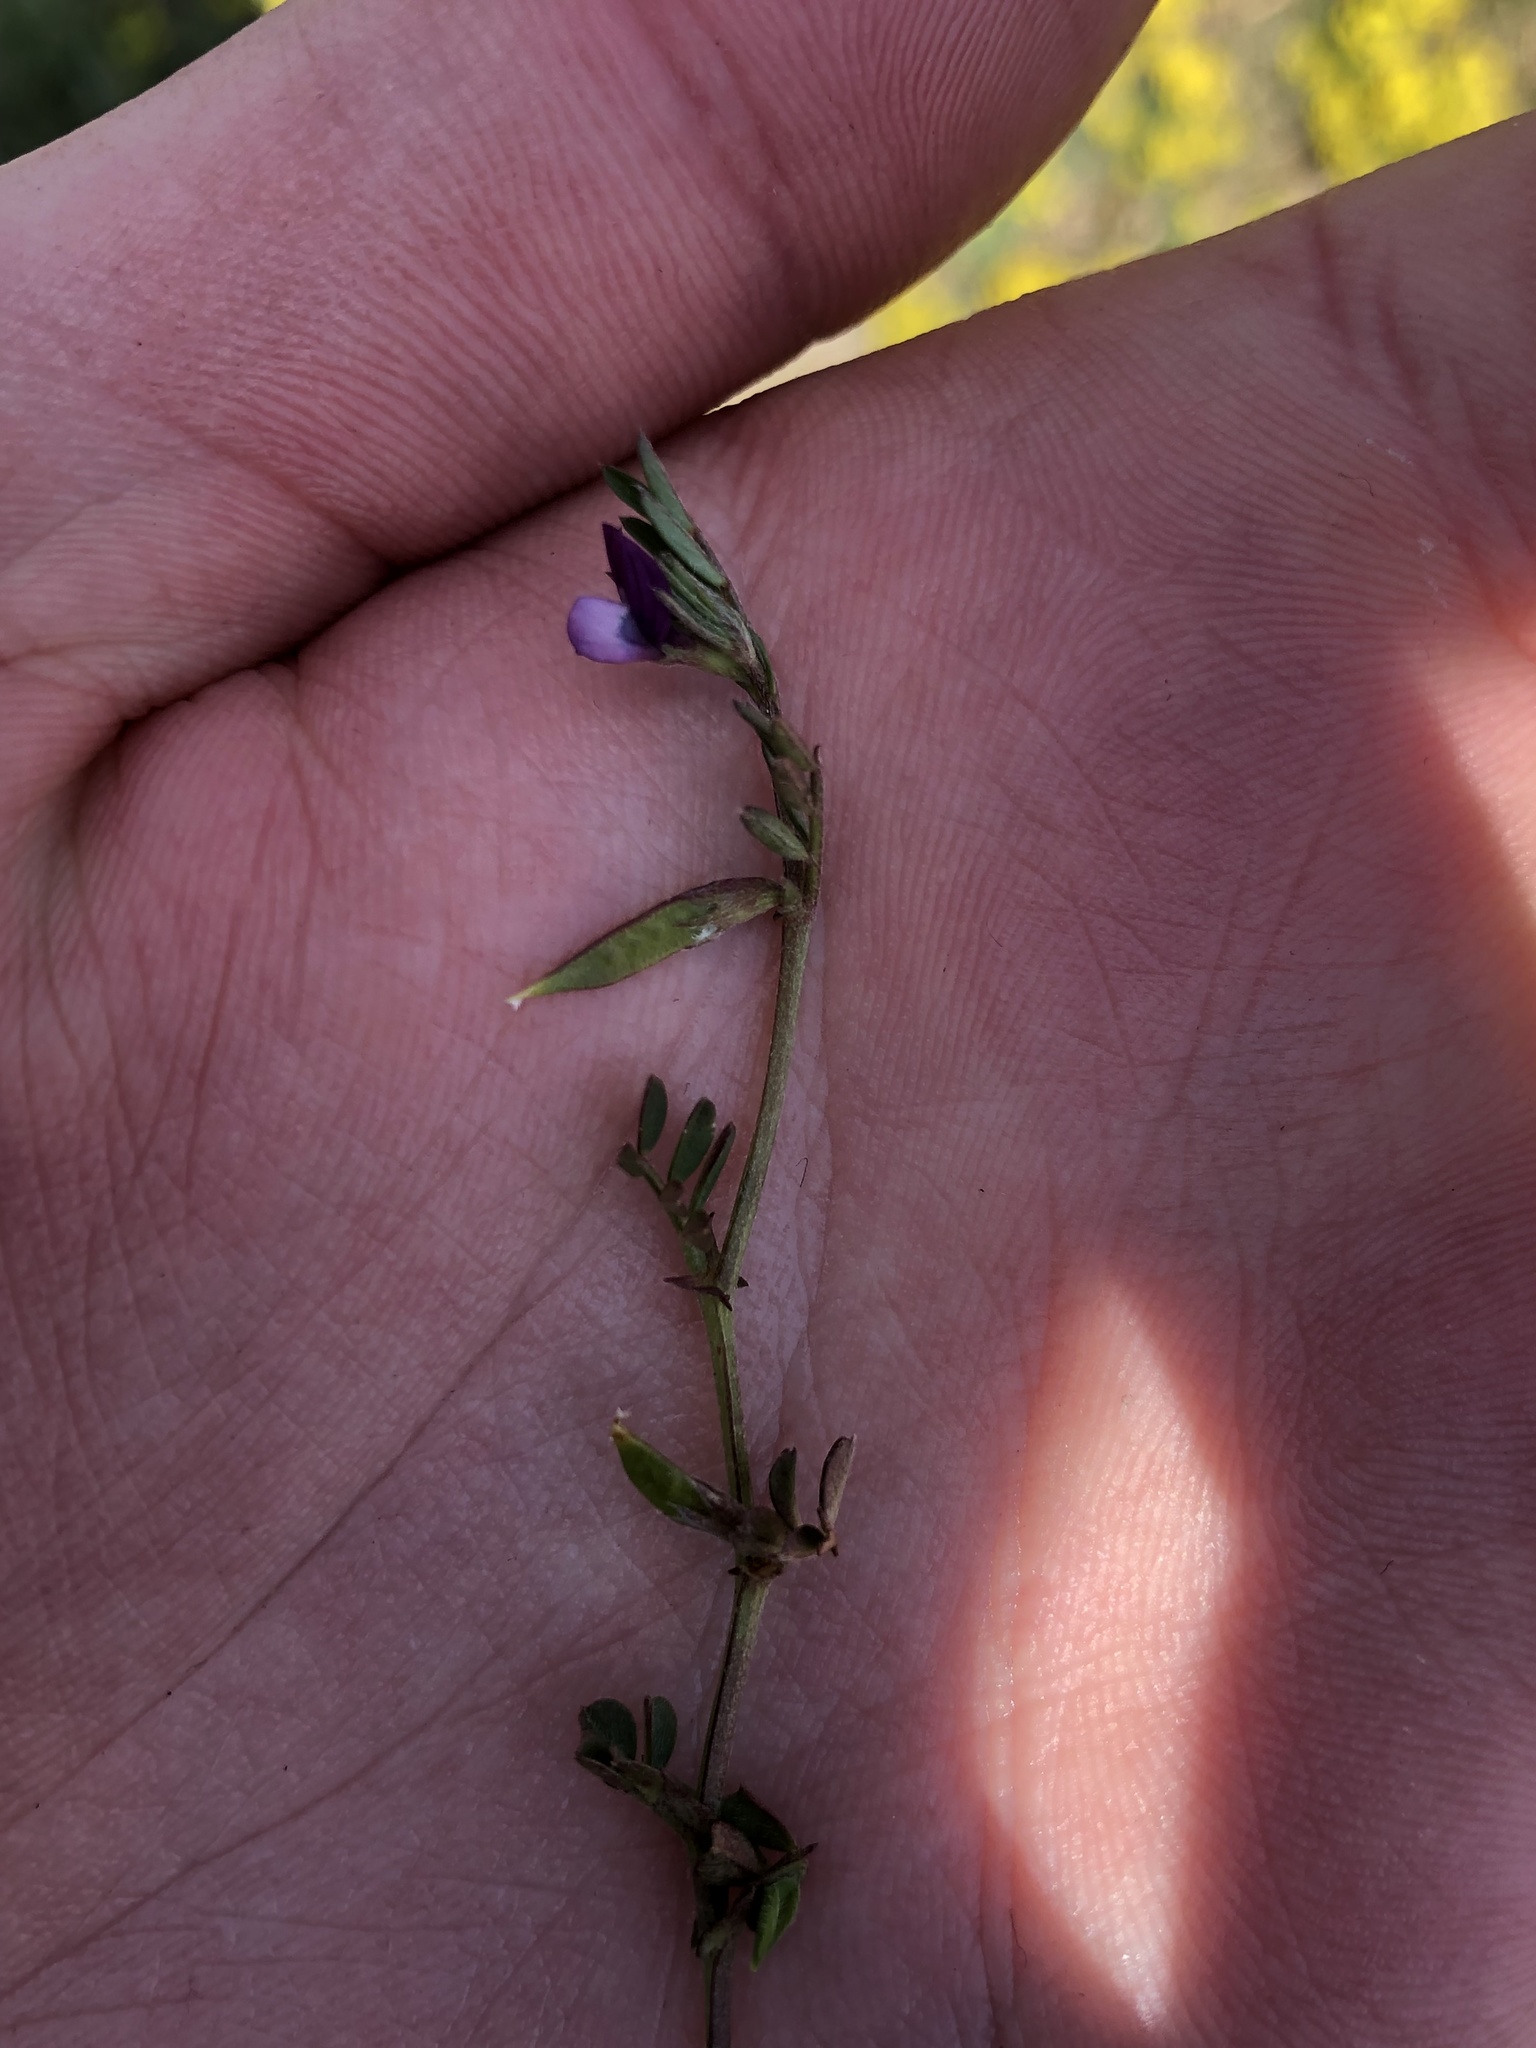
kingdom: Plantae
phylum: Tracheophyta
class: Magnoliopsida
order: Fabales
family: Fabaceae
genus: Vicia
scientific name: Vicia lathyroides
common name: Spring vetch
